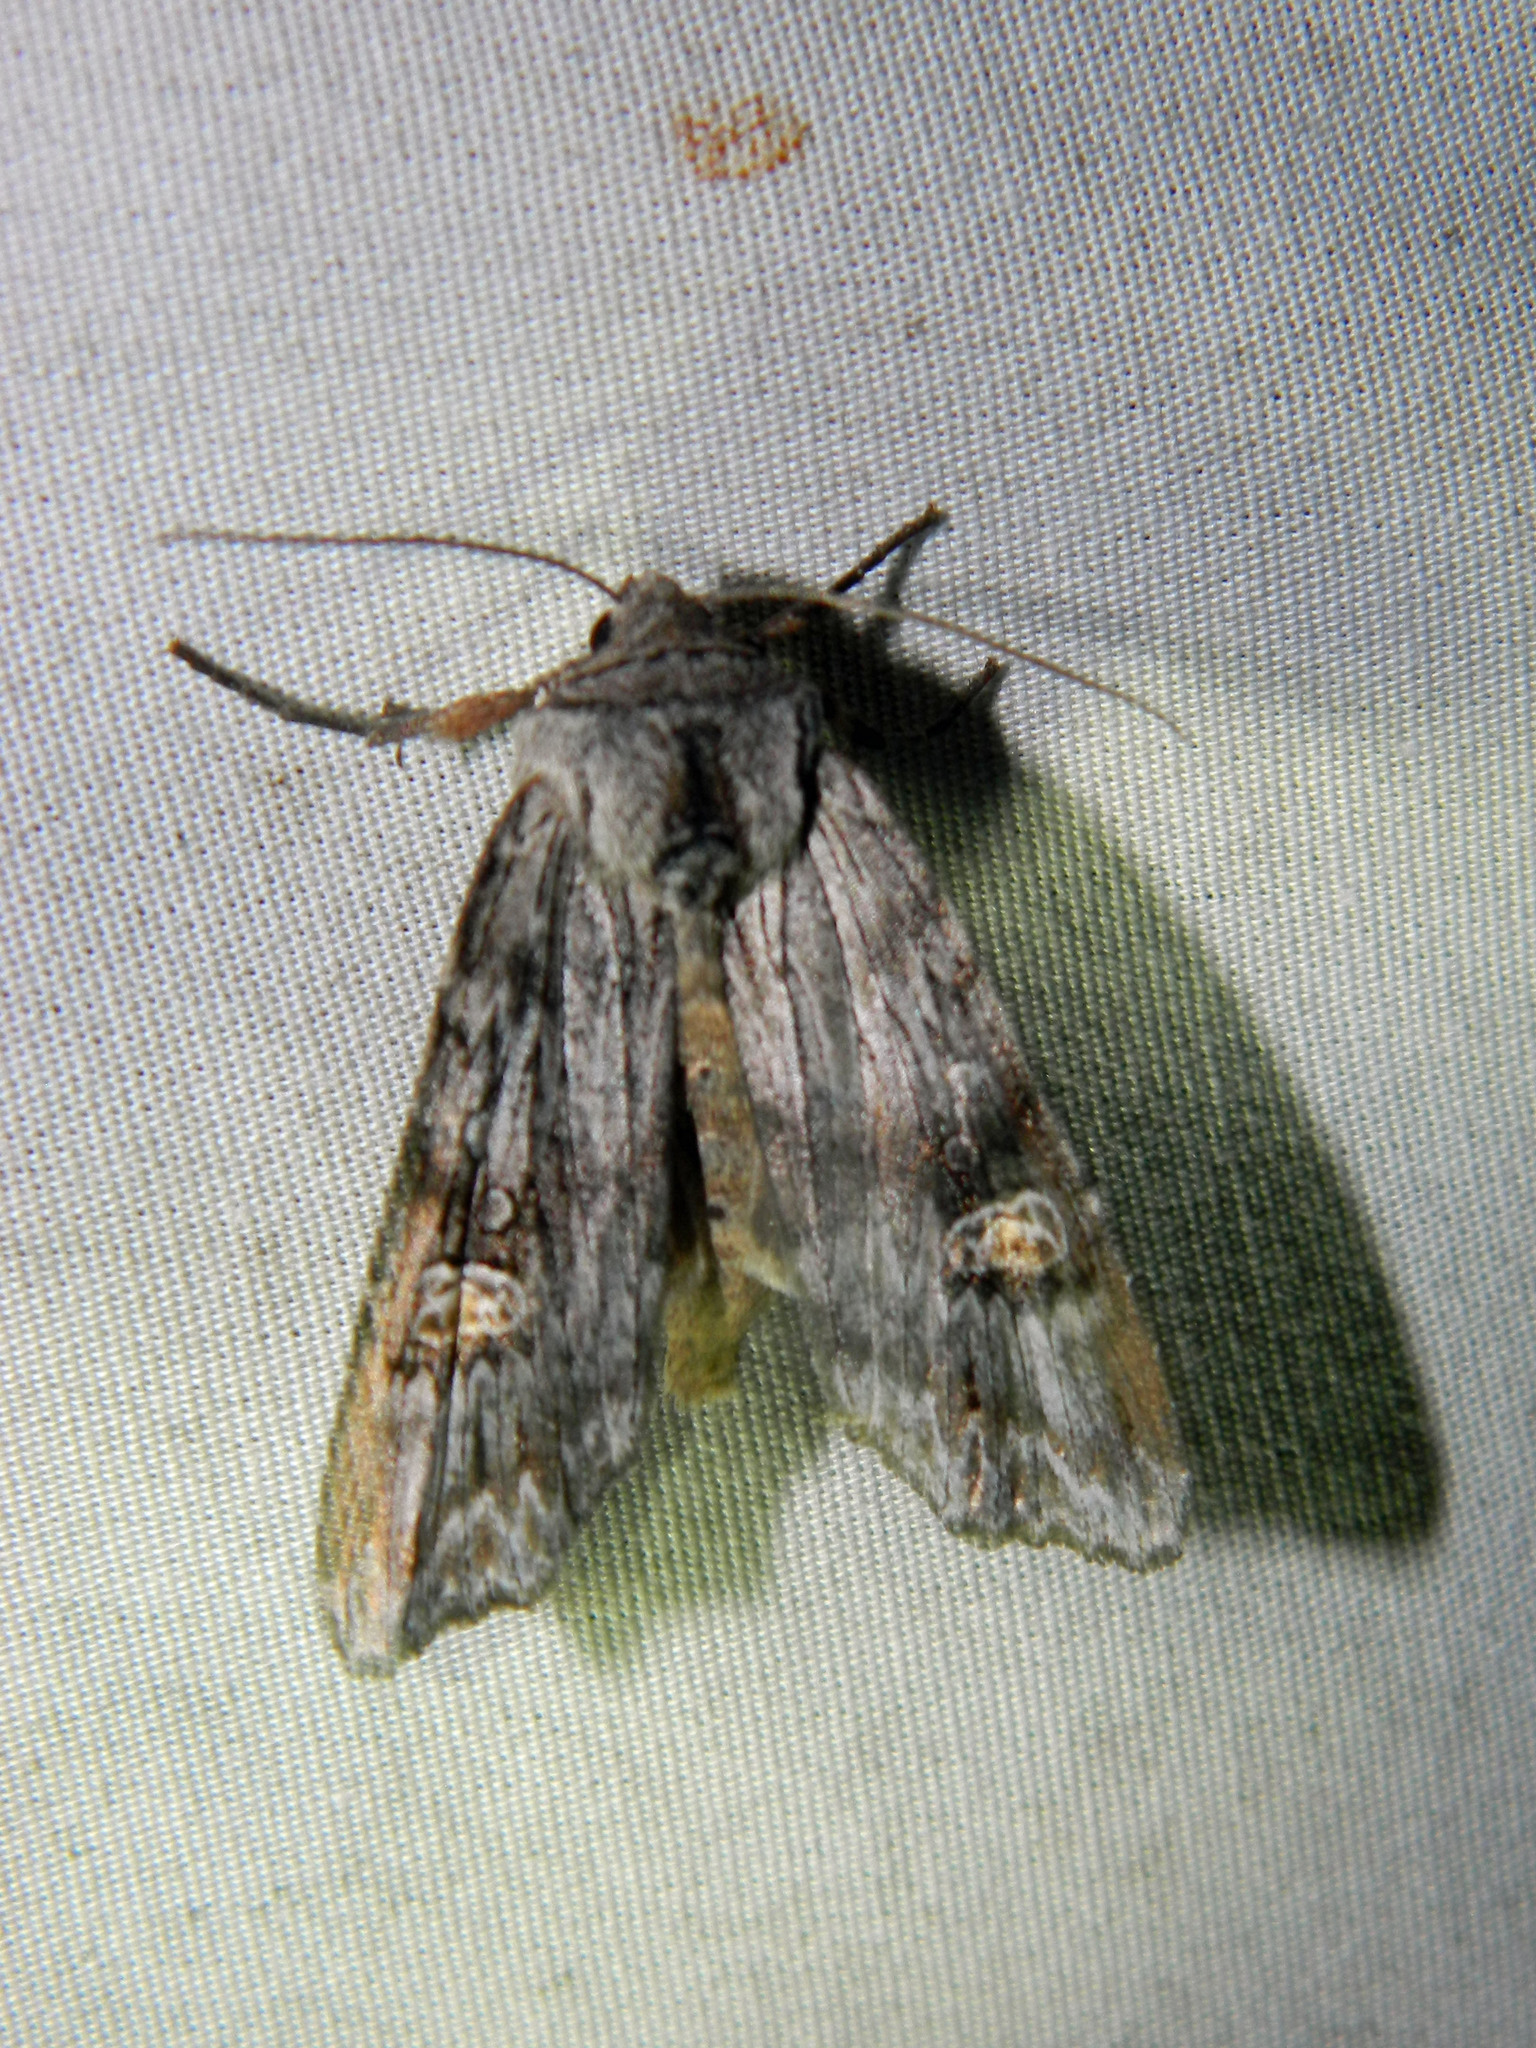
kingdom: Animalia
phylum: Arthropoda
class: Insecta
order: Lepidoptera
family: Noctuidae
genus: Xylena
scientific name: Xylena germana
